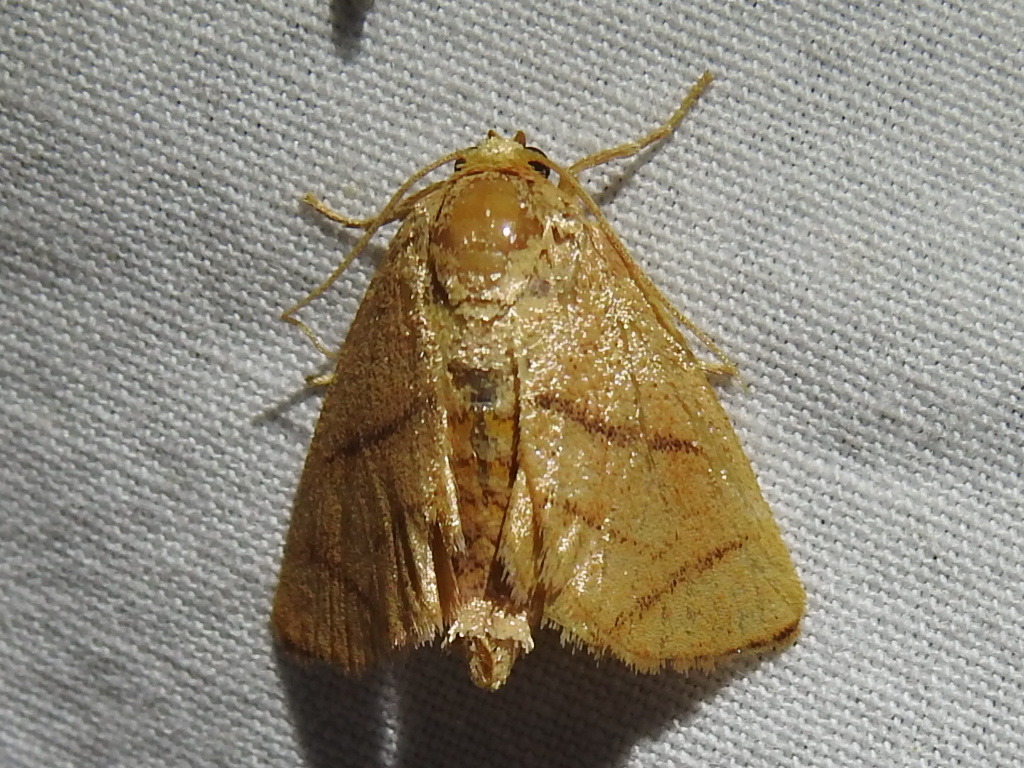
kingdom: Animalia
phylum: Arthropoda
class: Insecta
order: Lepidoptera
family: Limacodidae
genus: Apoda
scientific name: Apoda y-inversa
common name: Yellow-collared slug moth
